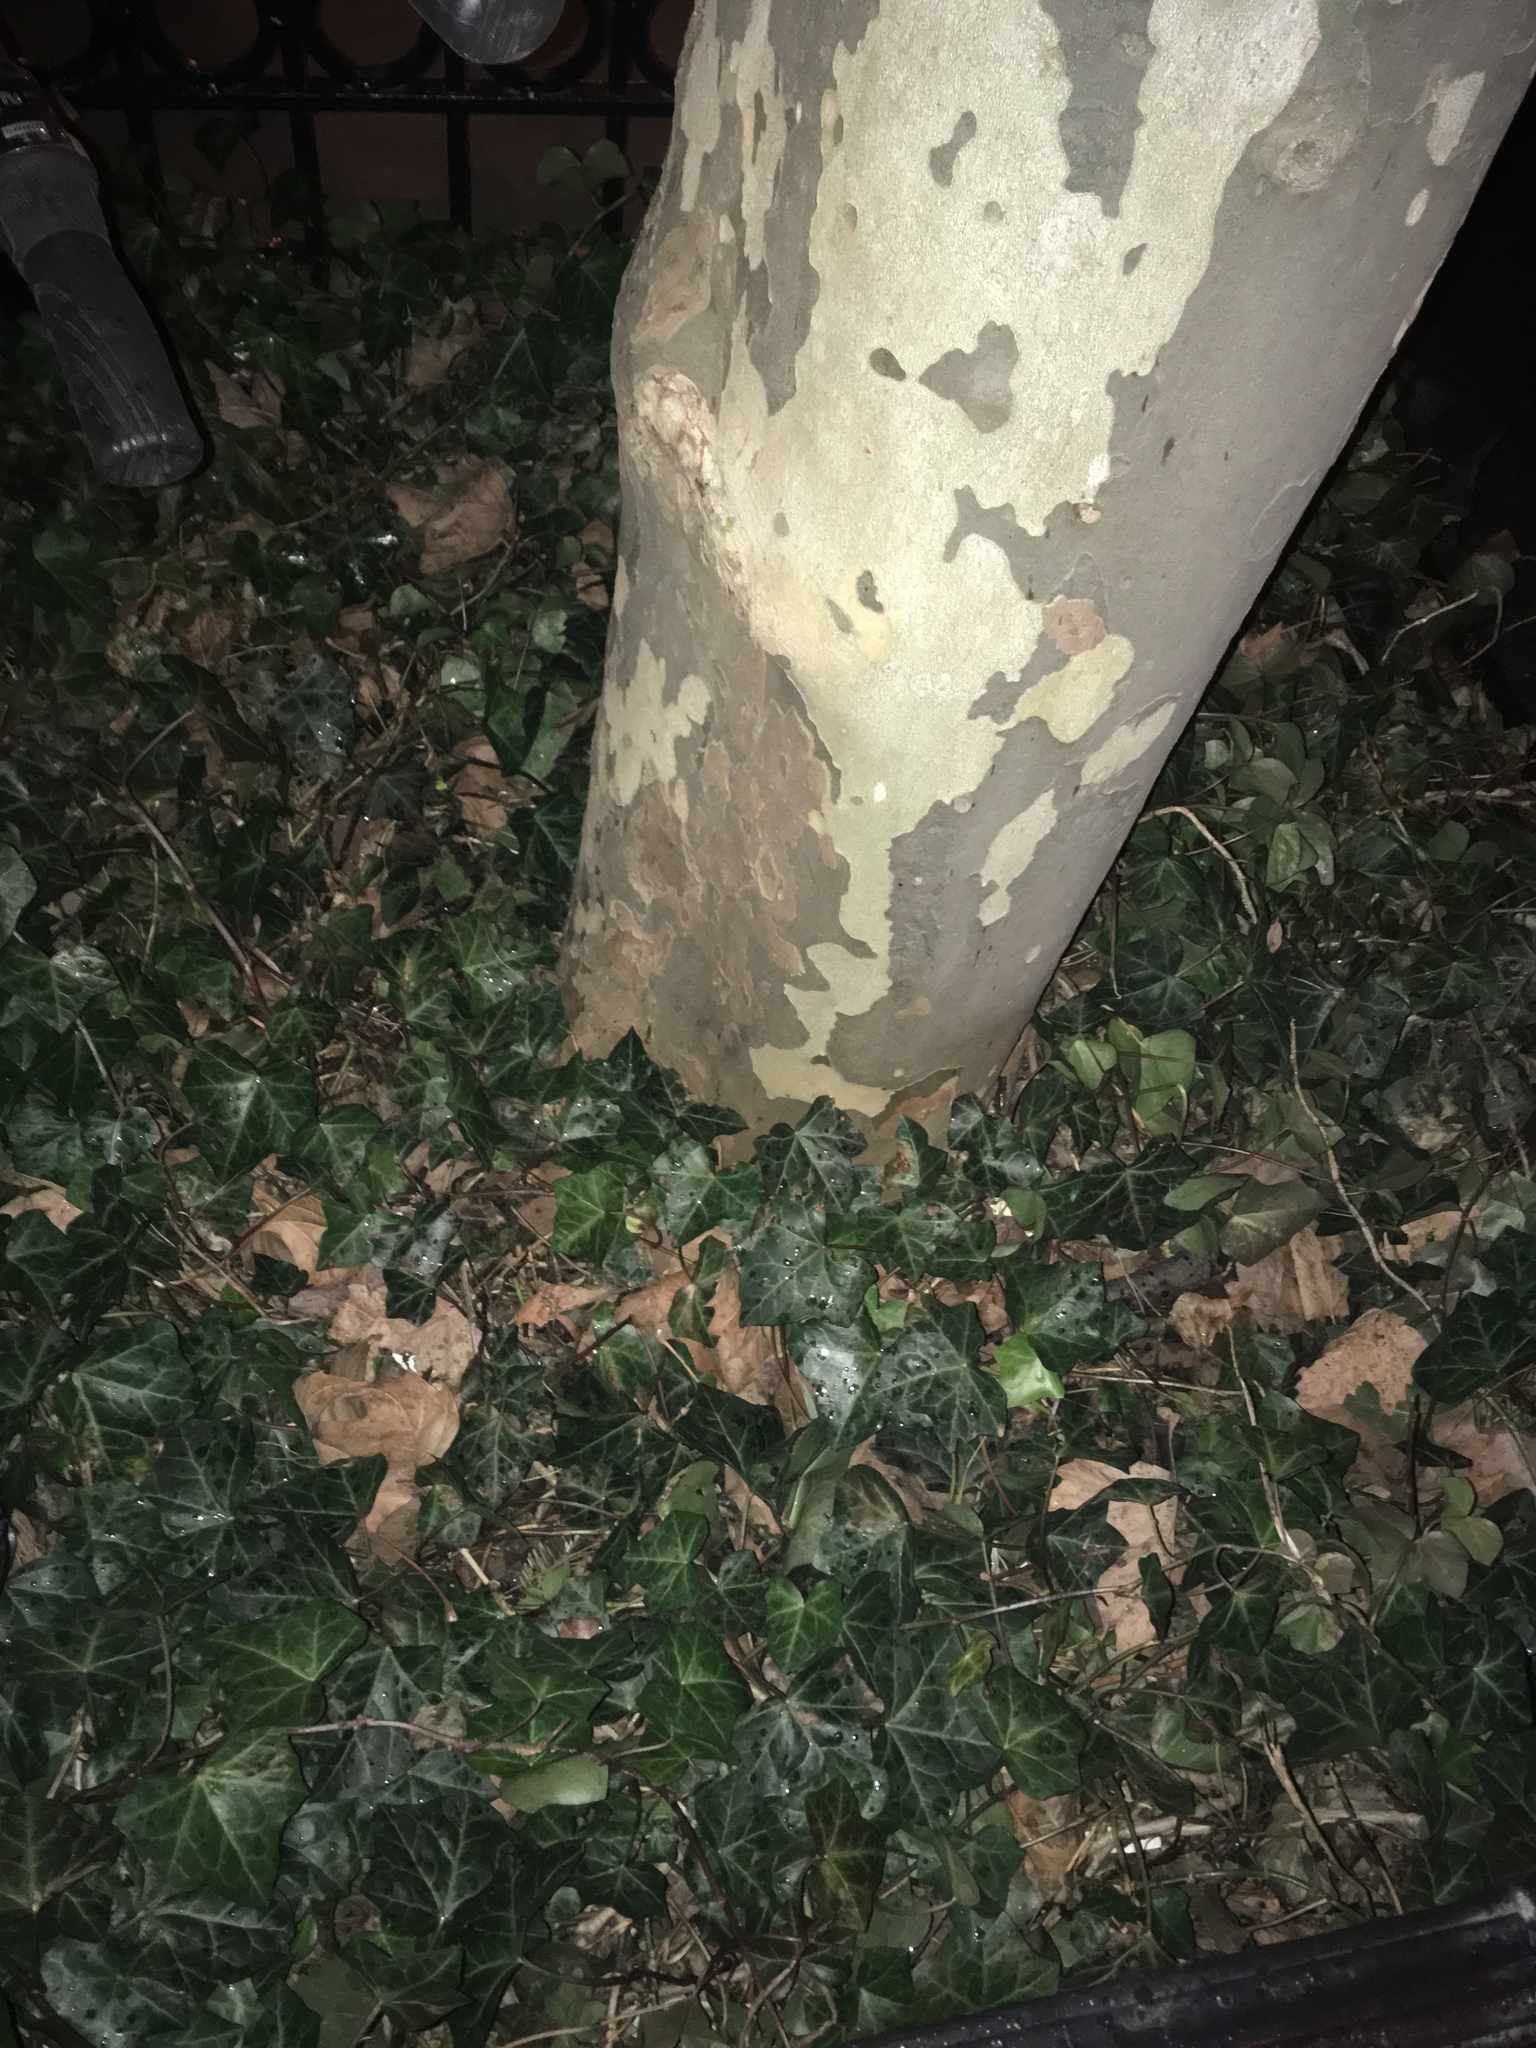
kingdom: Plantae
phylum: Tracheophyta
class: Magnoliopsida
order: Apiales
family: Araliaceae
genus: Hedera
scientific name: Hedera helix
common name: Ivy
